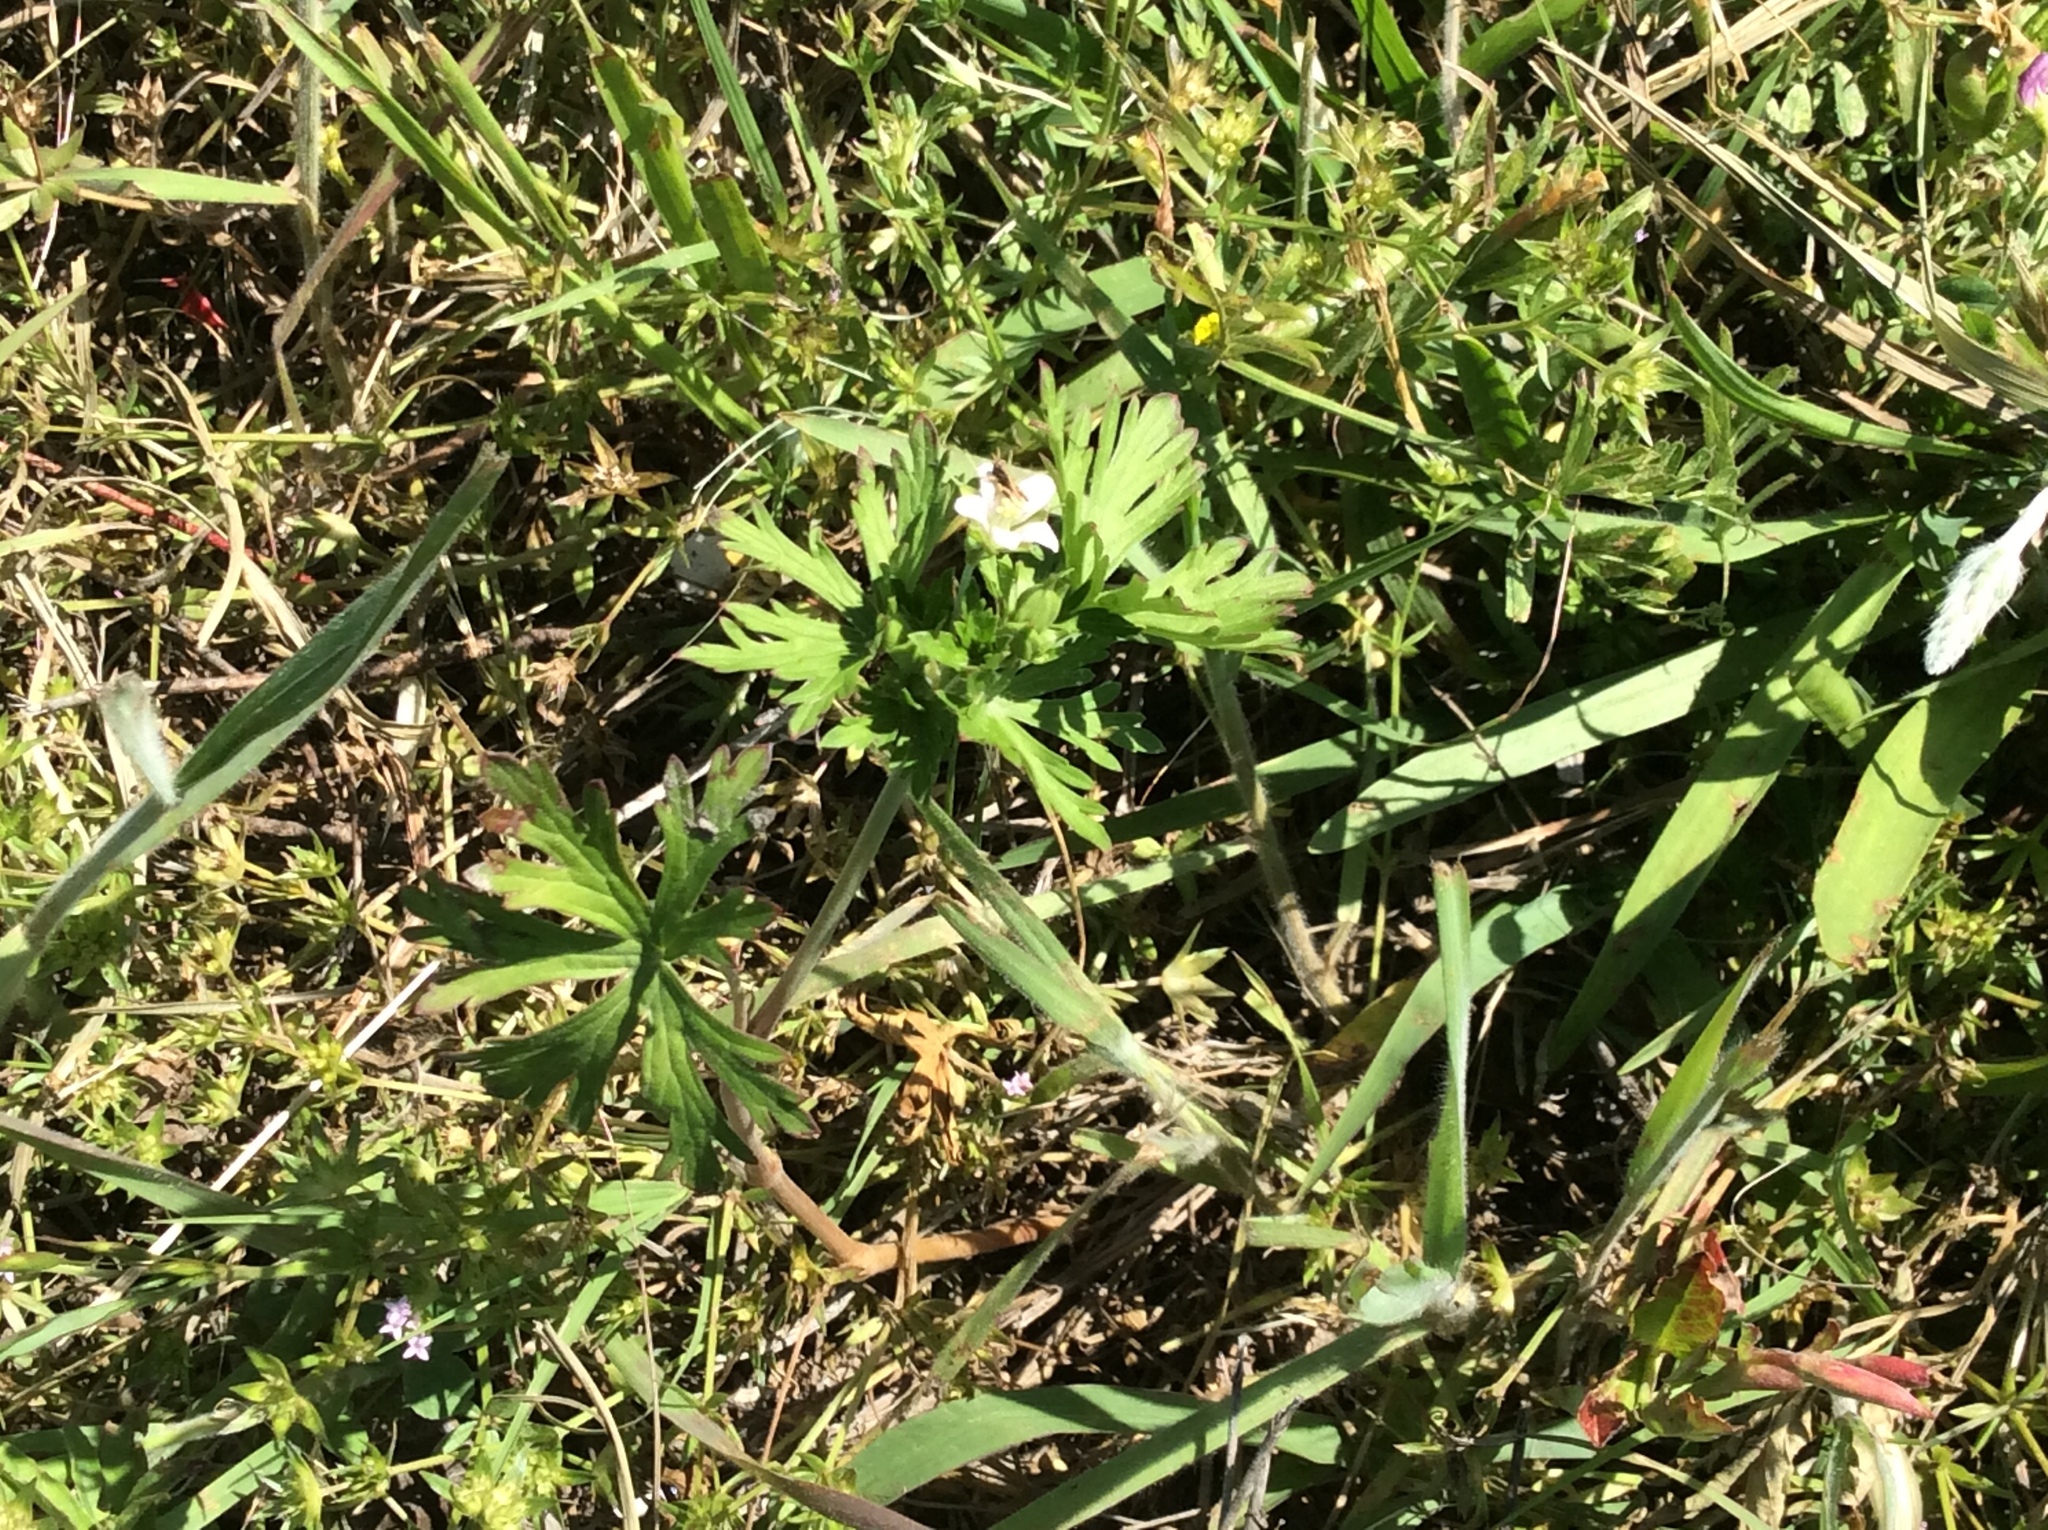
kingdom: Plantae
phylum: Tracheophyta
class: Magnoliopsida
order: Geraniales
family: Geraniaceae
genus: Geranium
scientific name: Geranium carolinianum
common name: Carolina crane's-bill
